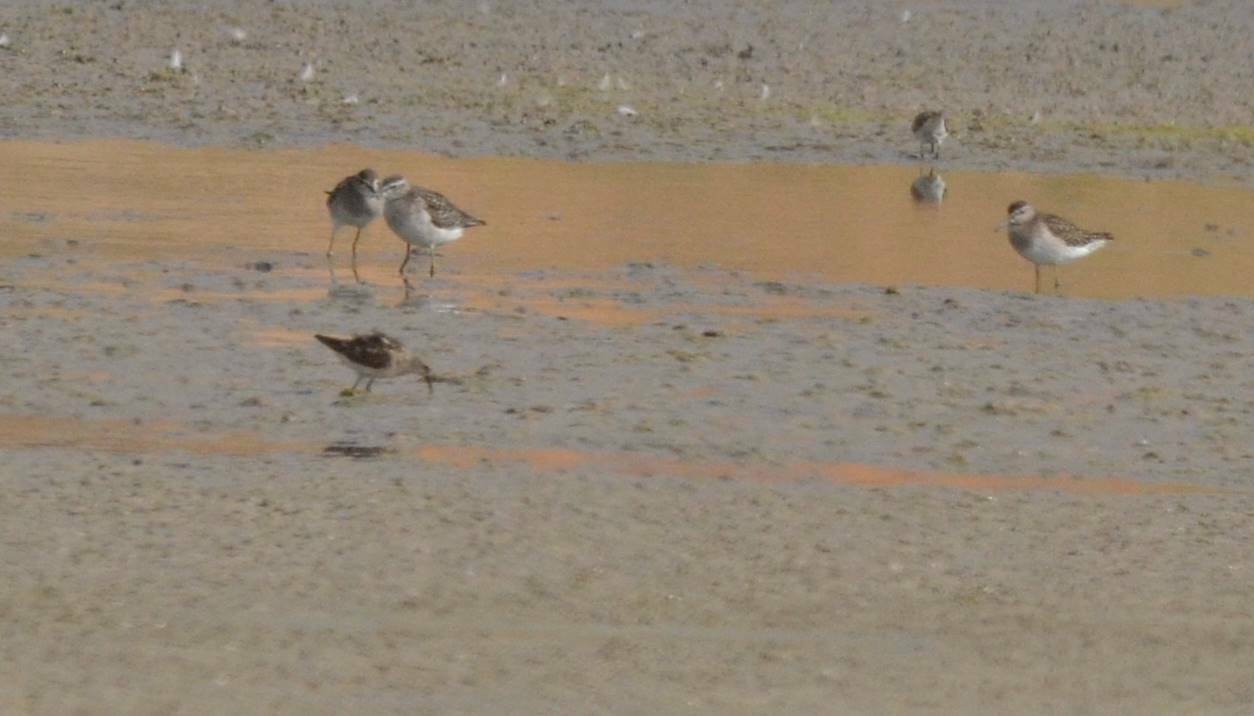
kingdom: Animalia
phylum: Chordata
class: Aves
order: Charadriiformes
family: Scolopacidae
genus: Tringa
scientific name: Tringa glareola
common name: Wood sandpiper
